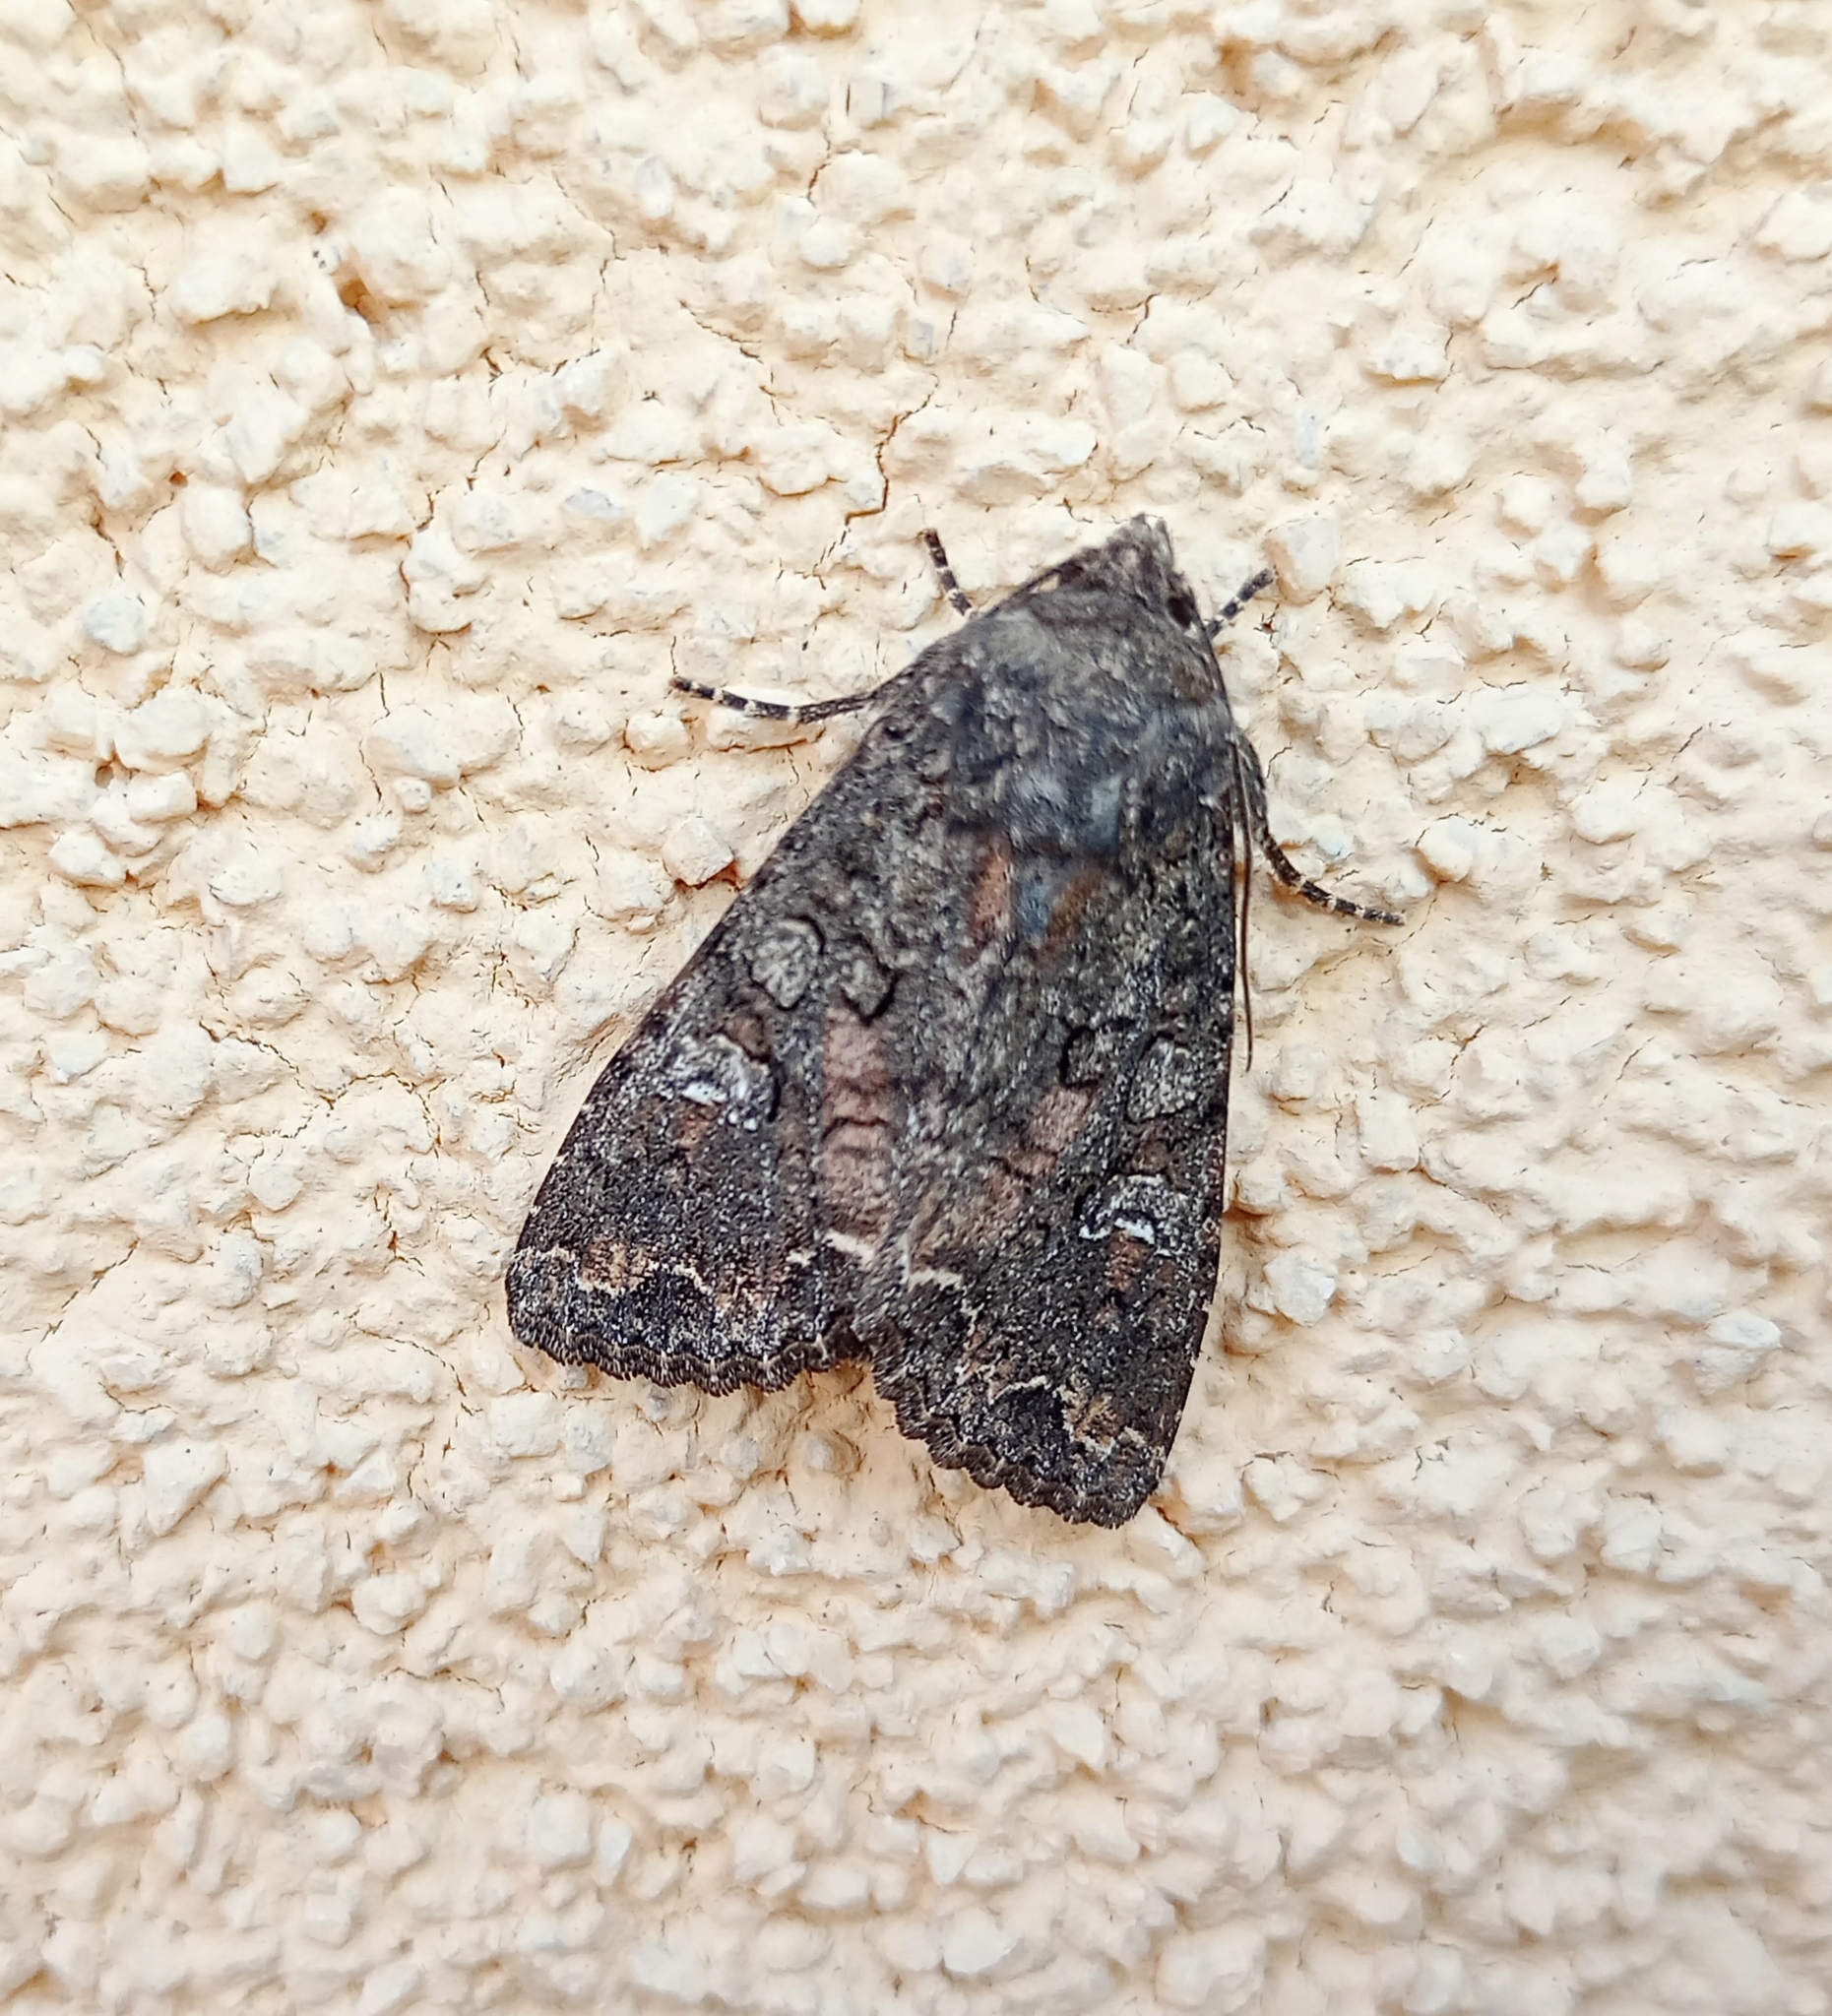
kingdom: Animalia
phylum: Arthropoda
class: Insecta
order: Lepidoptera
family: Noctuidae
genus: Mamestra
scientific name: Mamestra brassicae
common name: Cabbage moth
